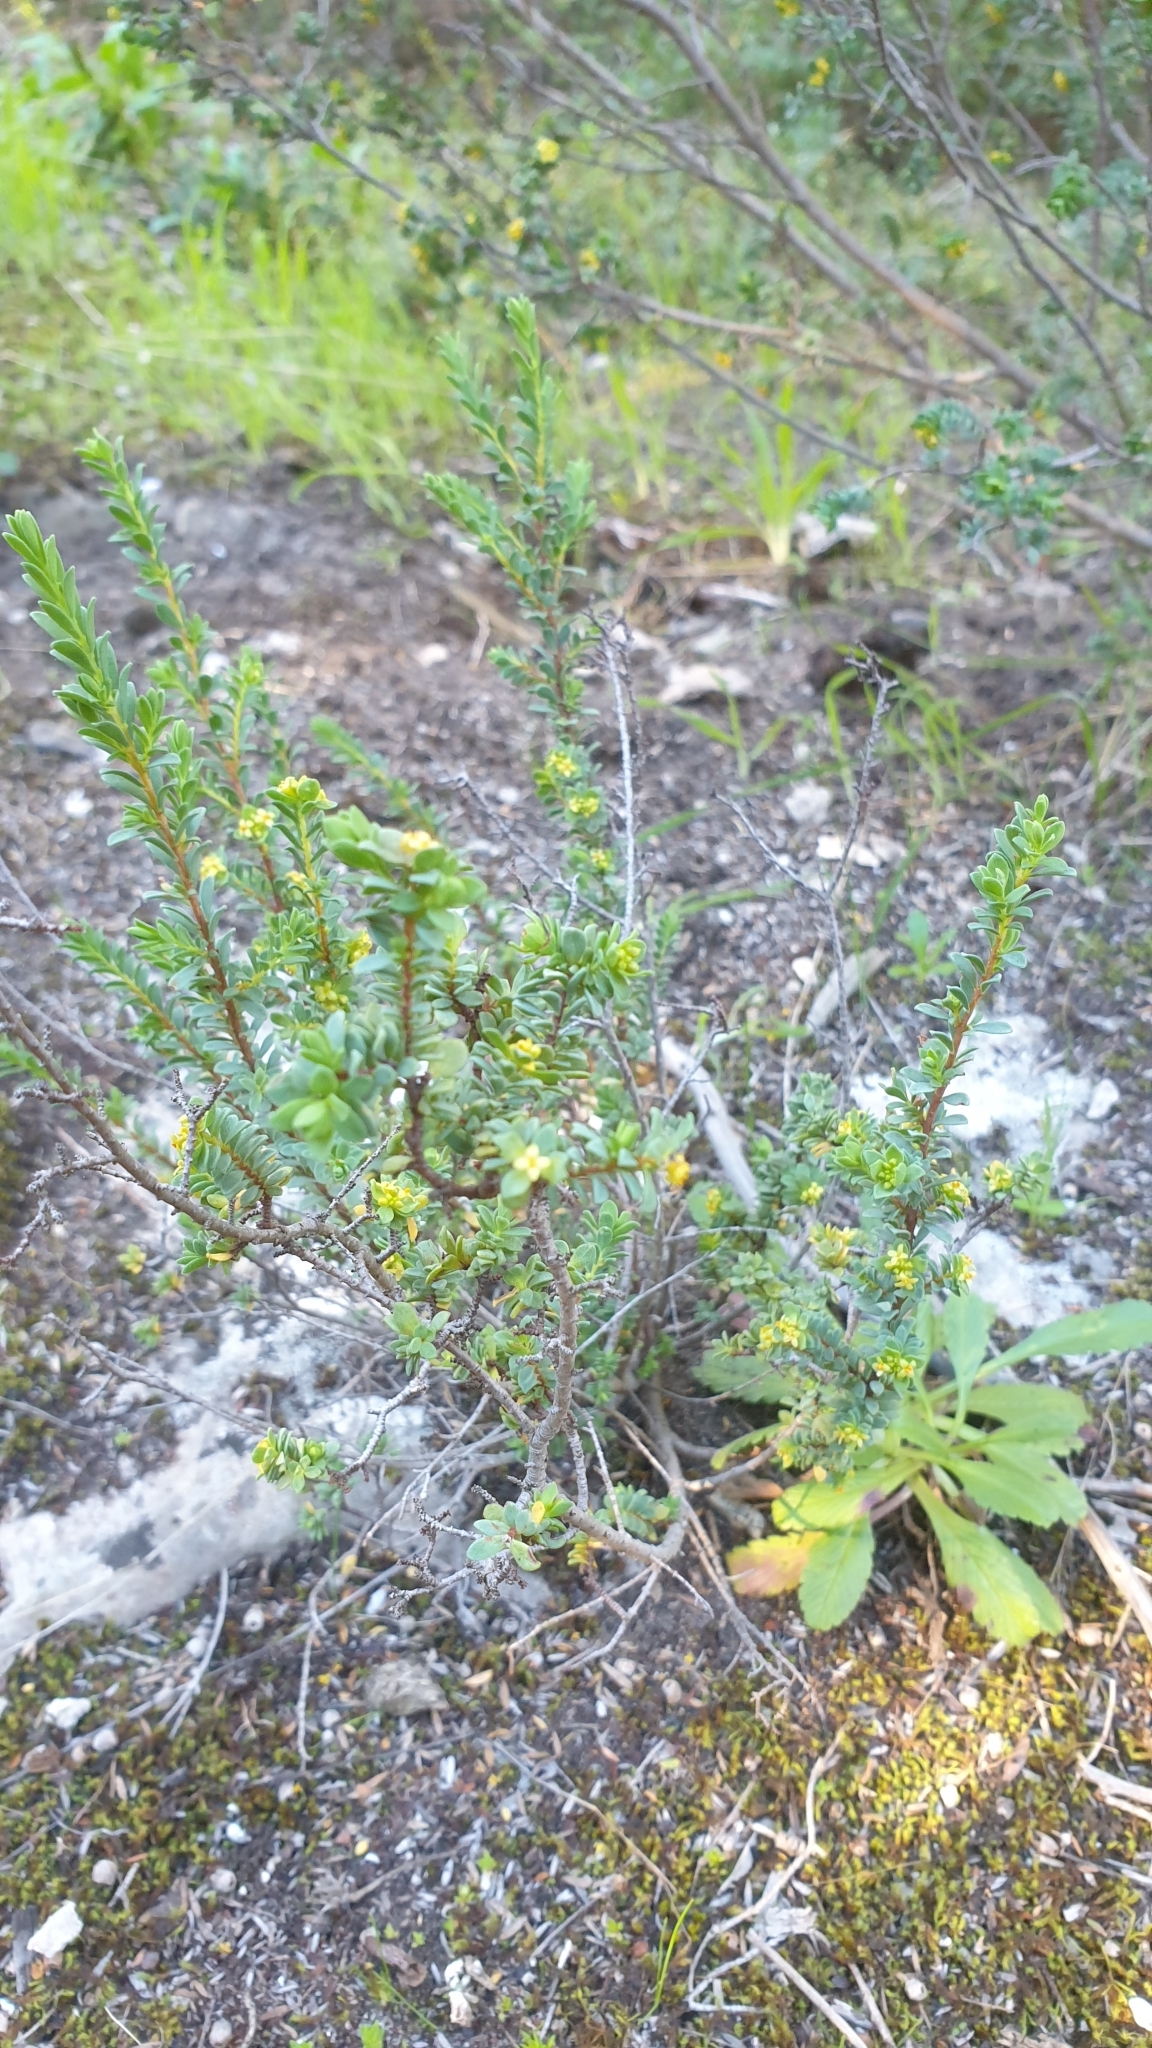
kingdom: Plantae
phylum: Tracheophyta
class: Magnoliopsida
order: Malvales
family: Thymelaeaceae
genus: Pimelea
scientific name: Pimelea serpyllifolia
